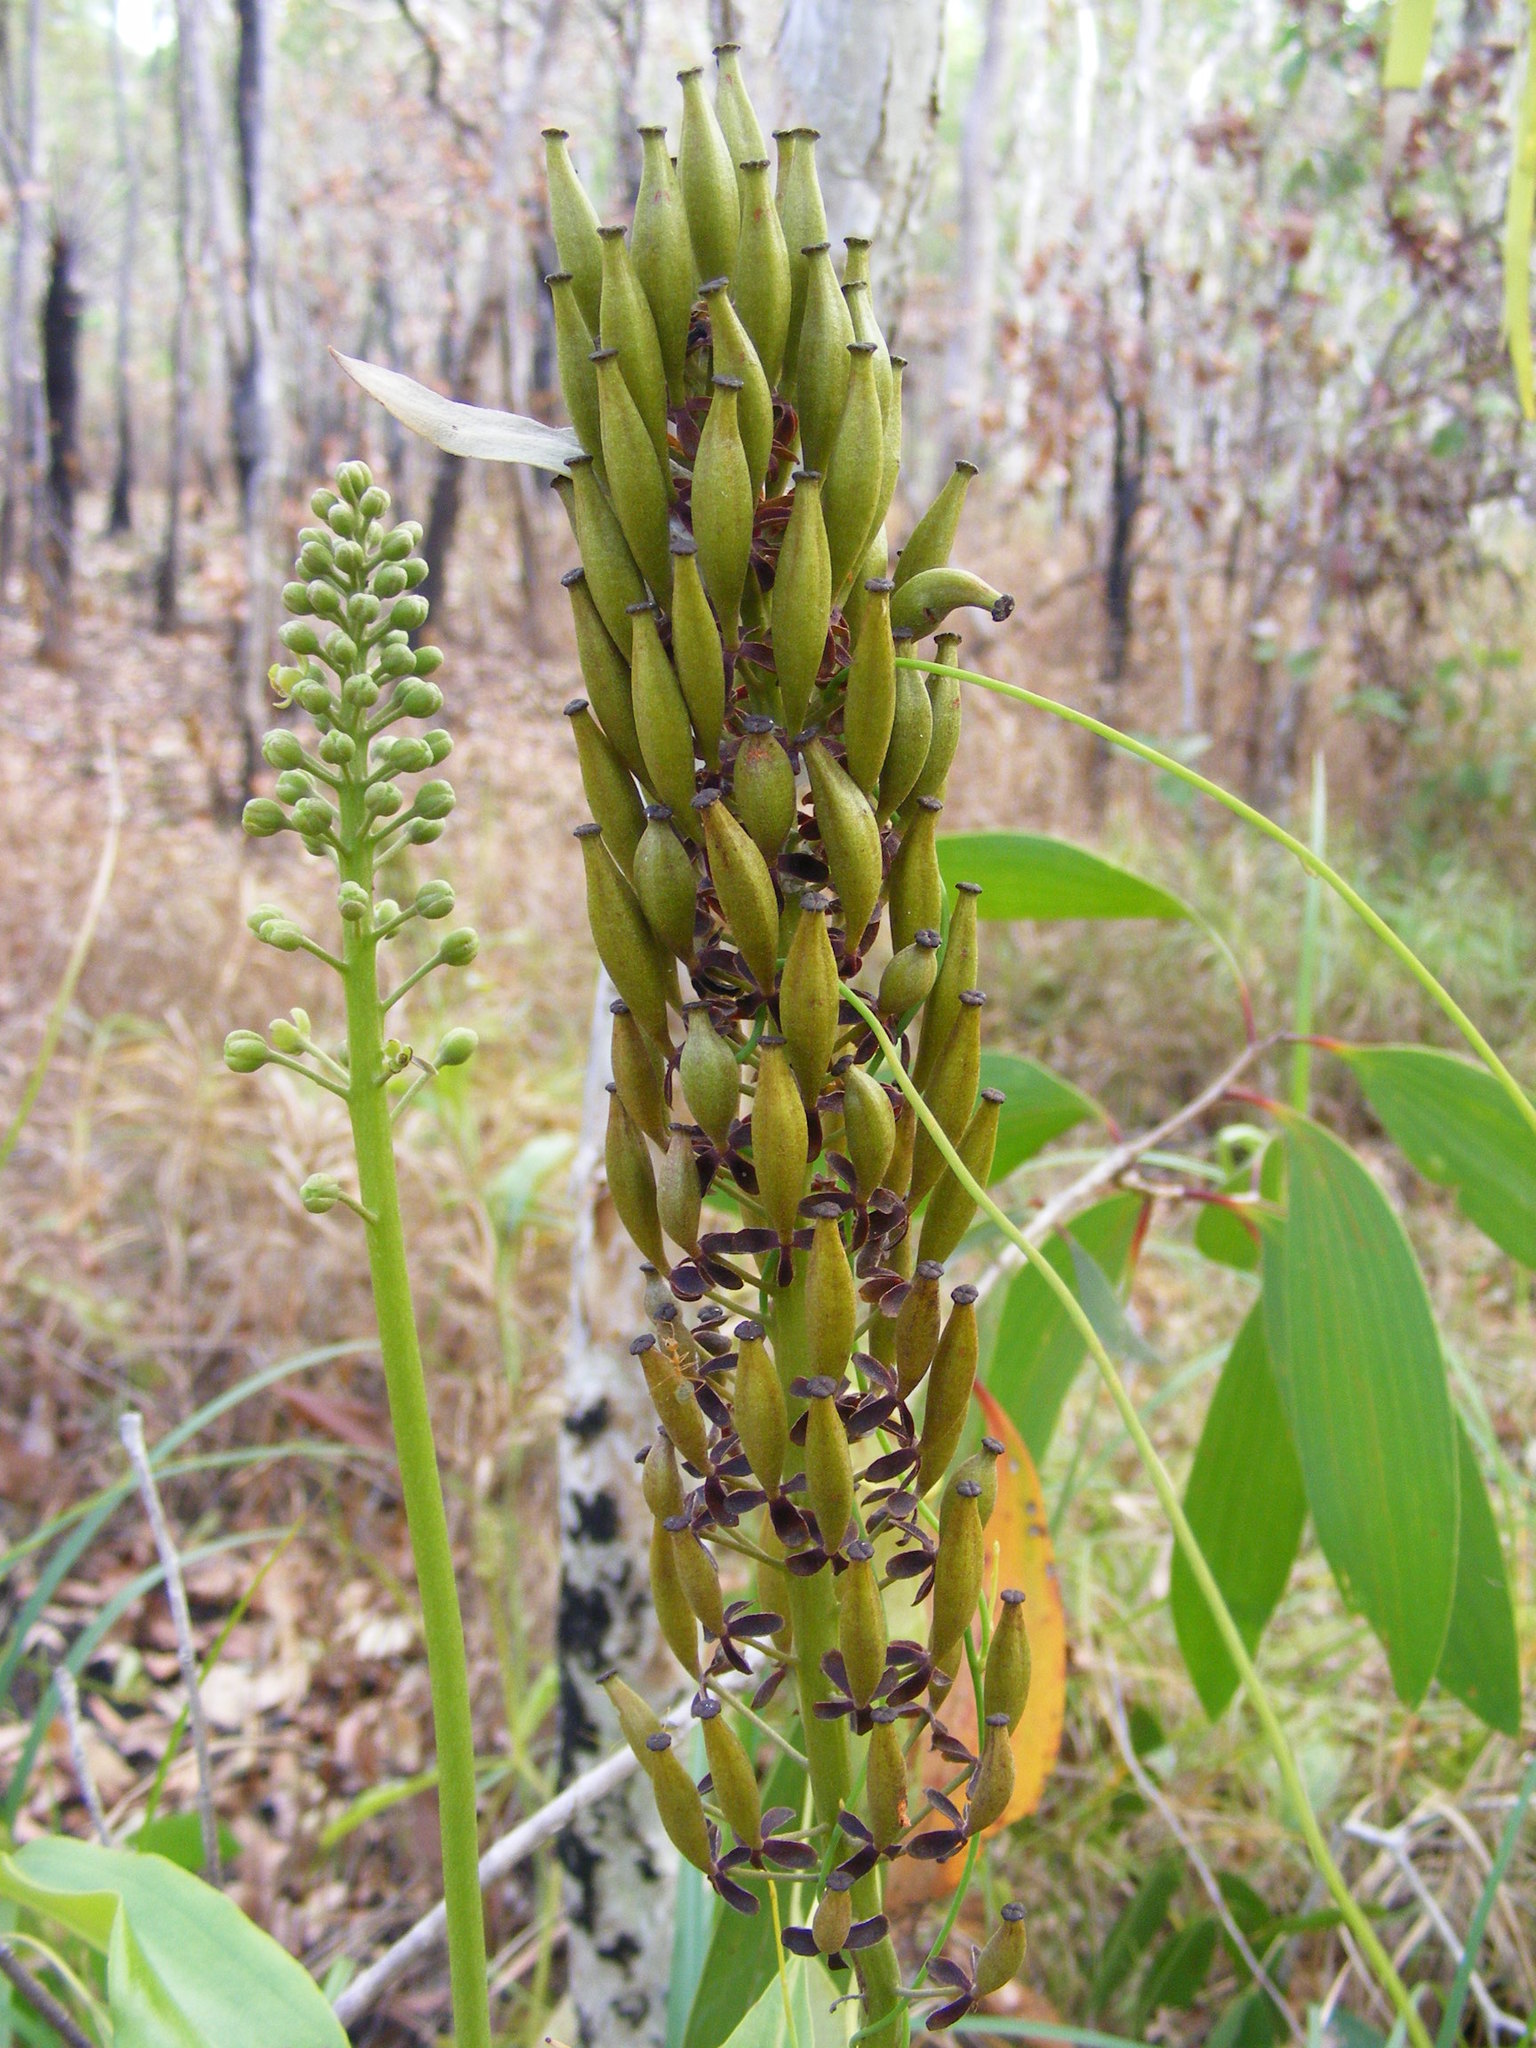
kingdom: Plantae
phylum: Tracheophyta
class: Magnoliopsida
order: Caryophyllales
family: Nepenthaceae
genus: Nepenthes
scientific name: Nepenthes mirabilis
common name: Tropical pitcherplant
